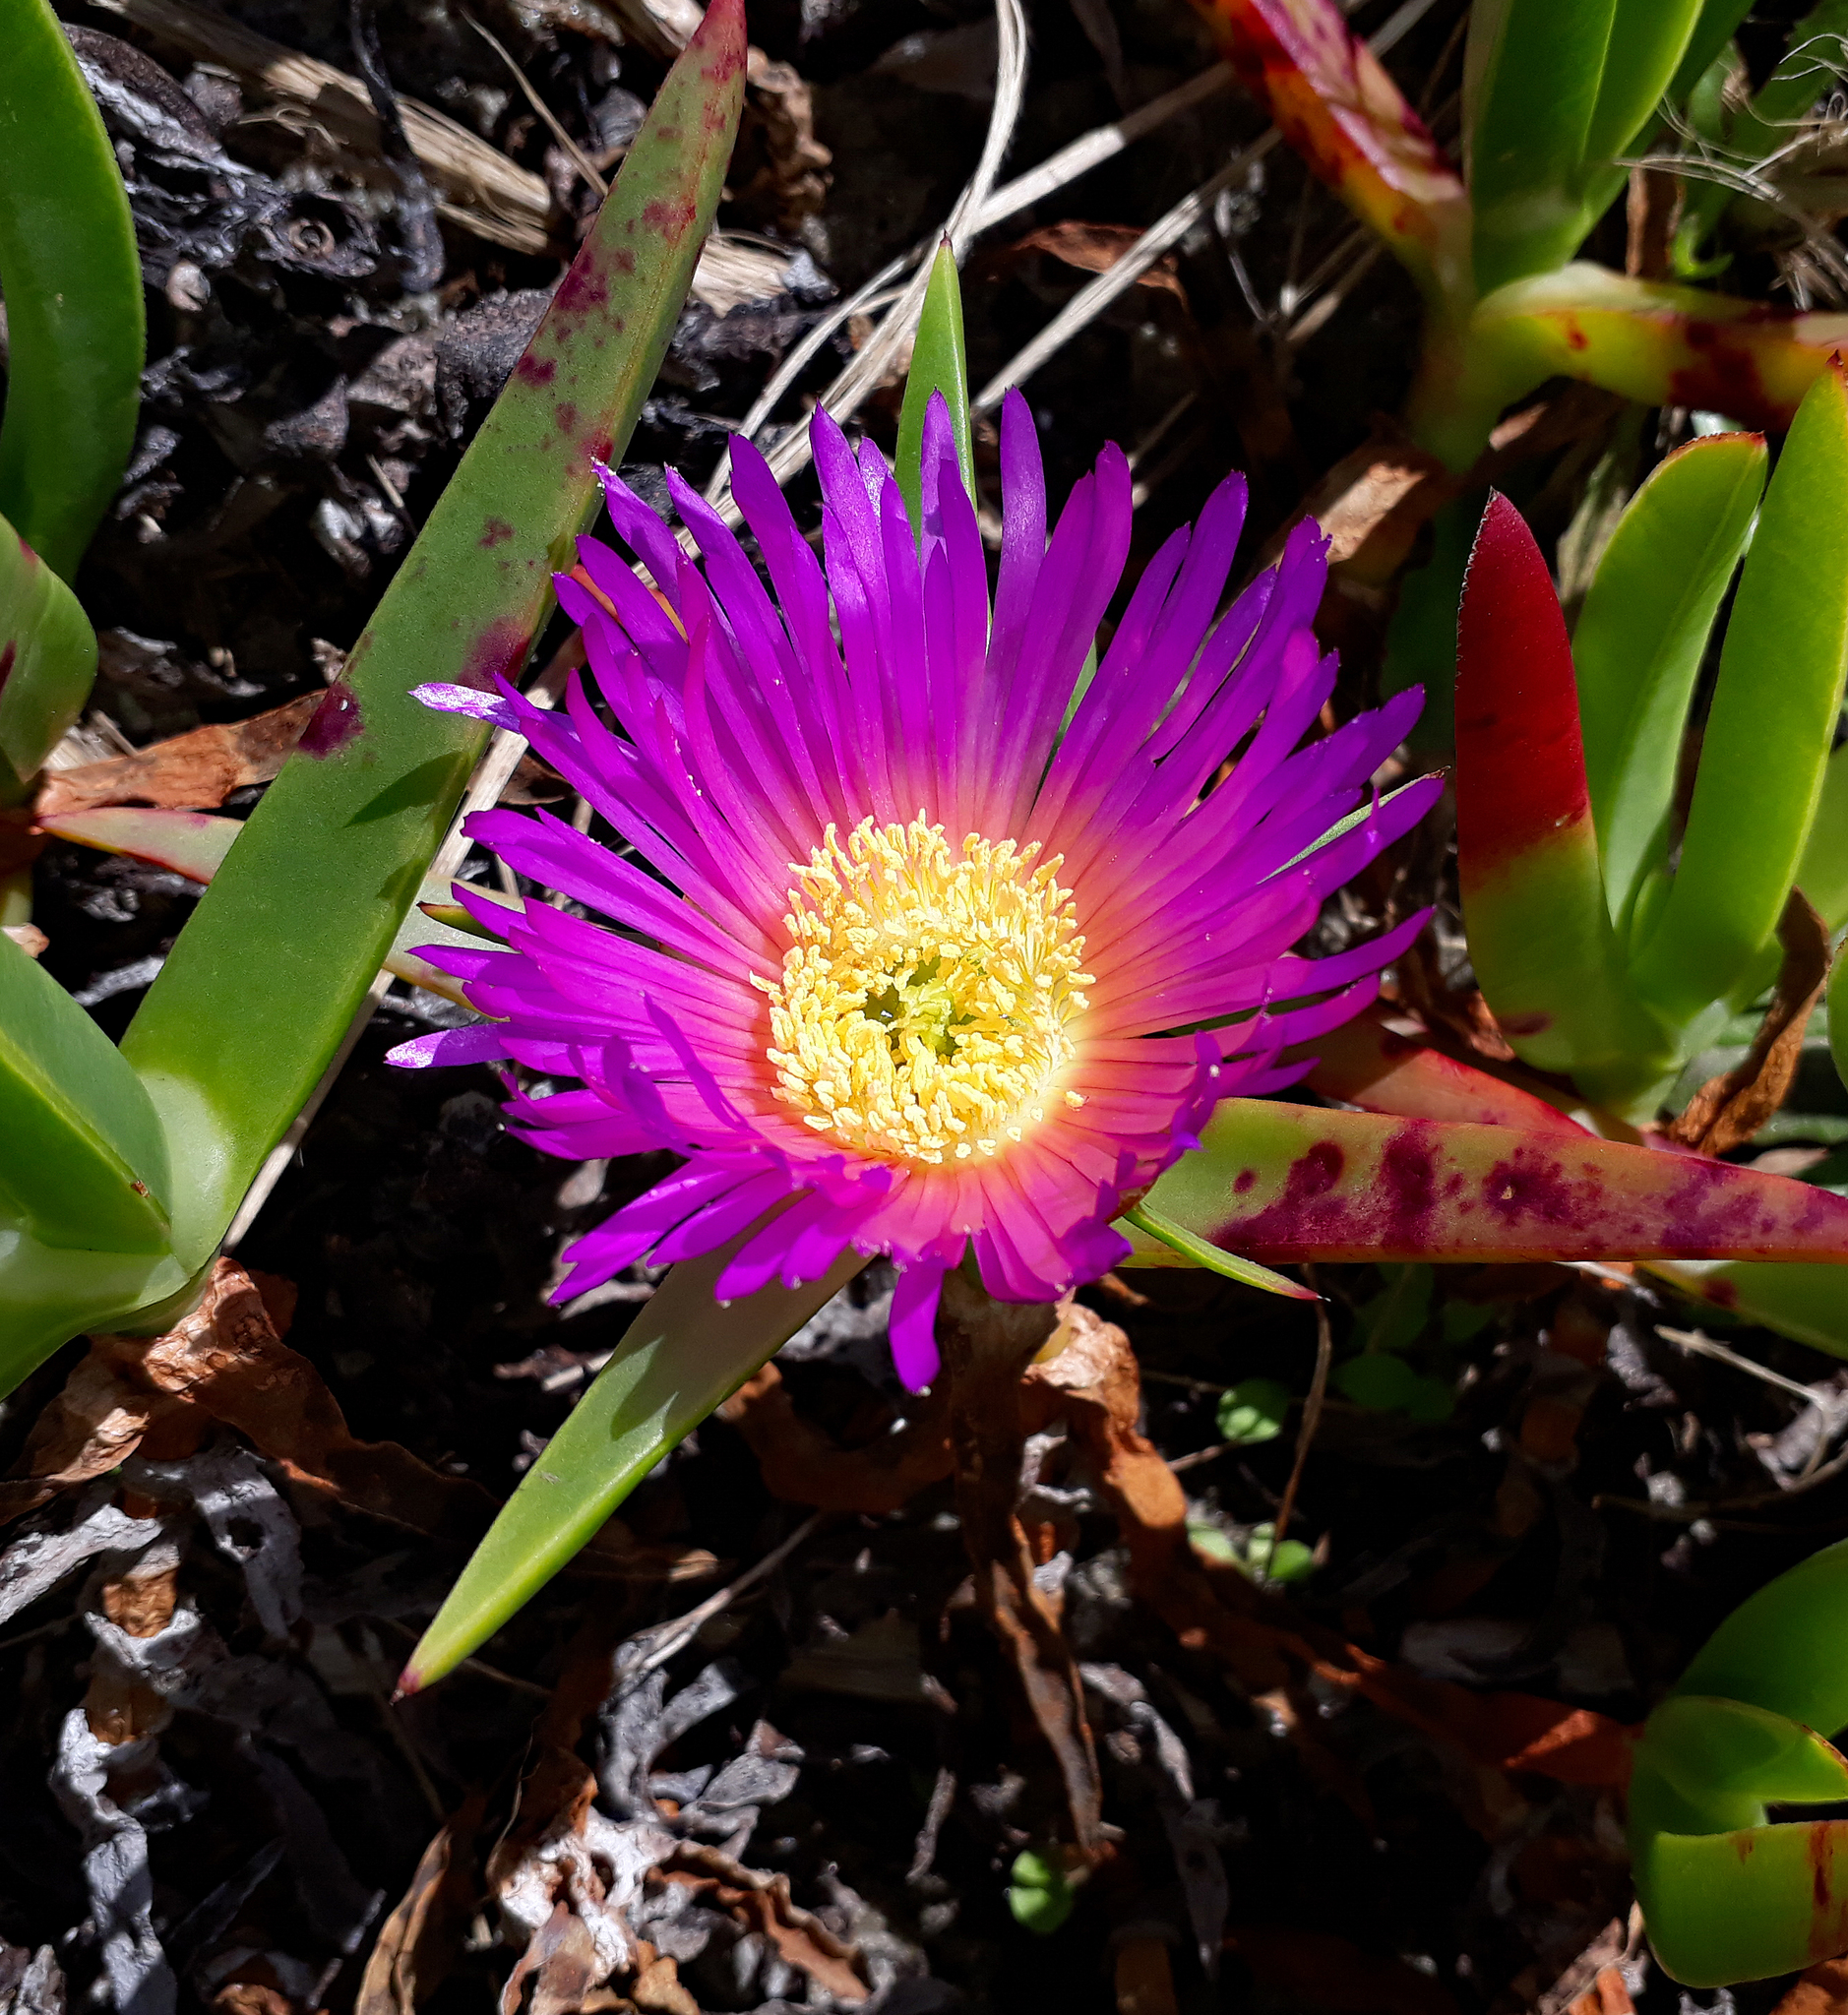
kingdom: Plantae
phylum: Tracheophyta
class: Magnoliopsida
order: Caryophyllales
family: Aizoaceae
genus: Carpobrotus
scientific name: Carpobrotus chilensis
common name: Sea fig
